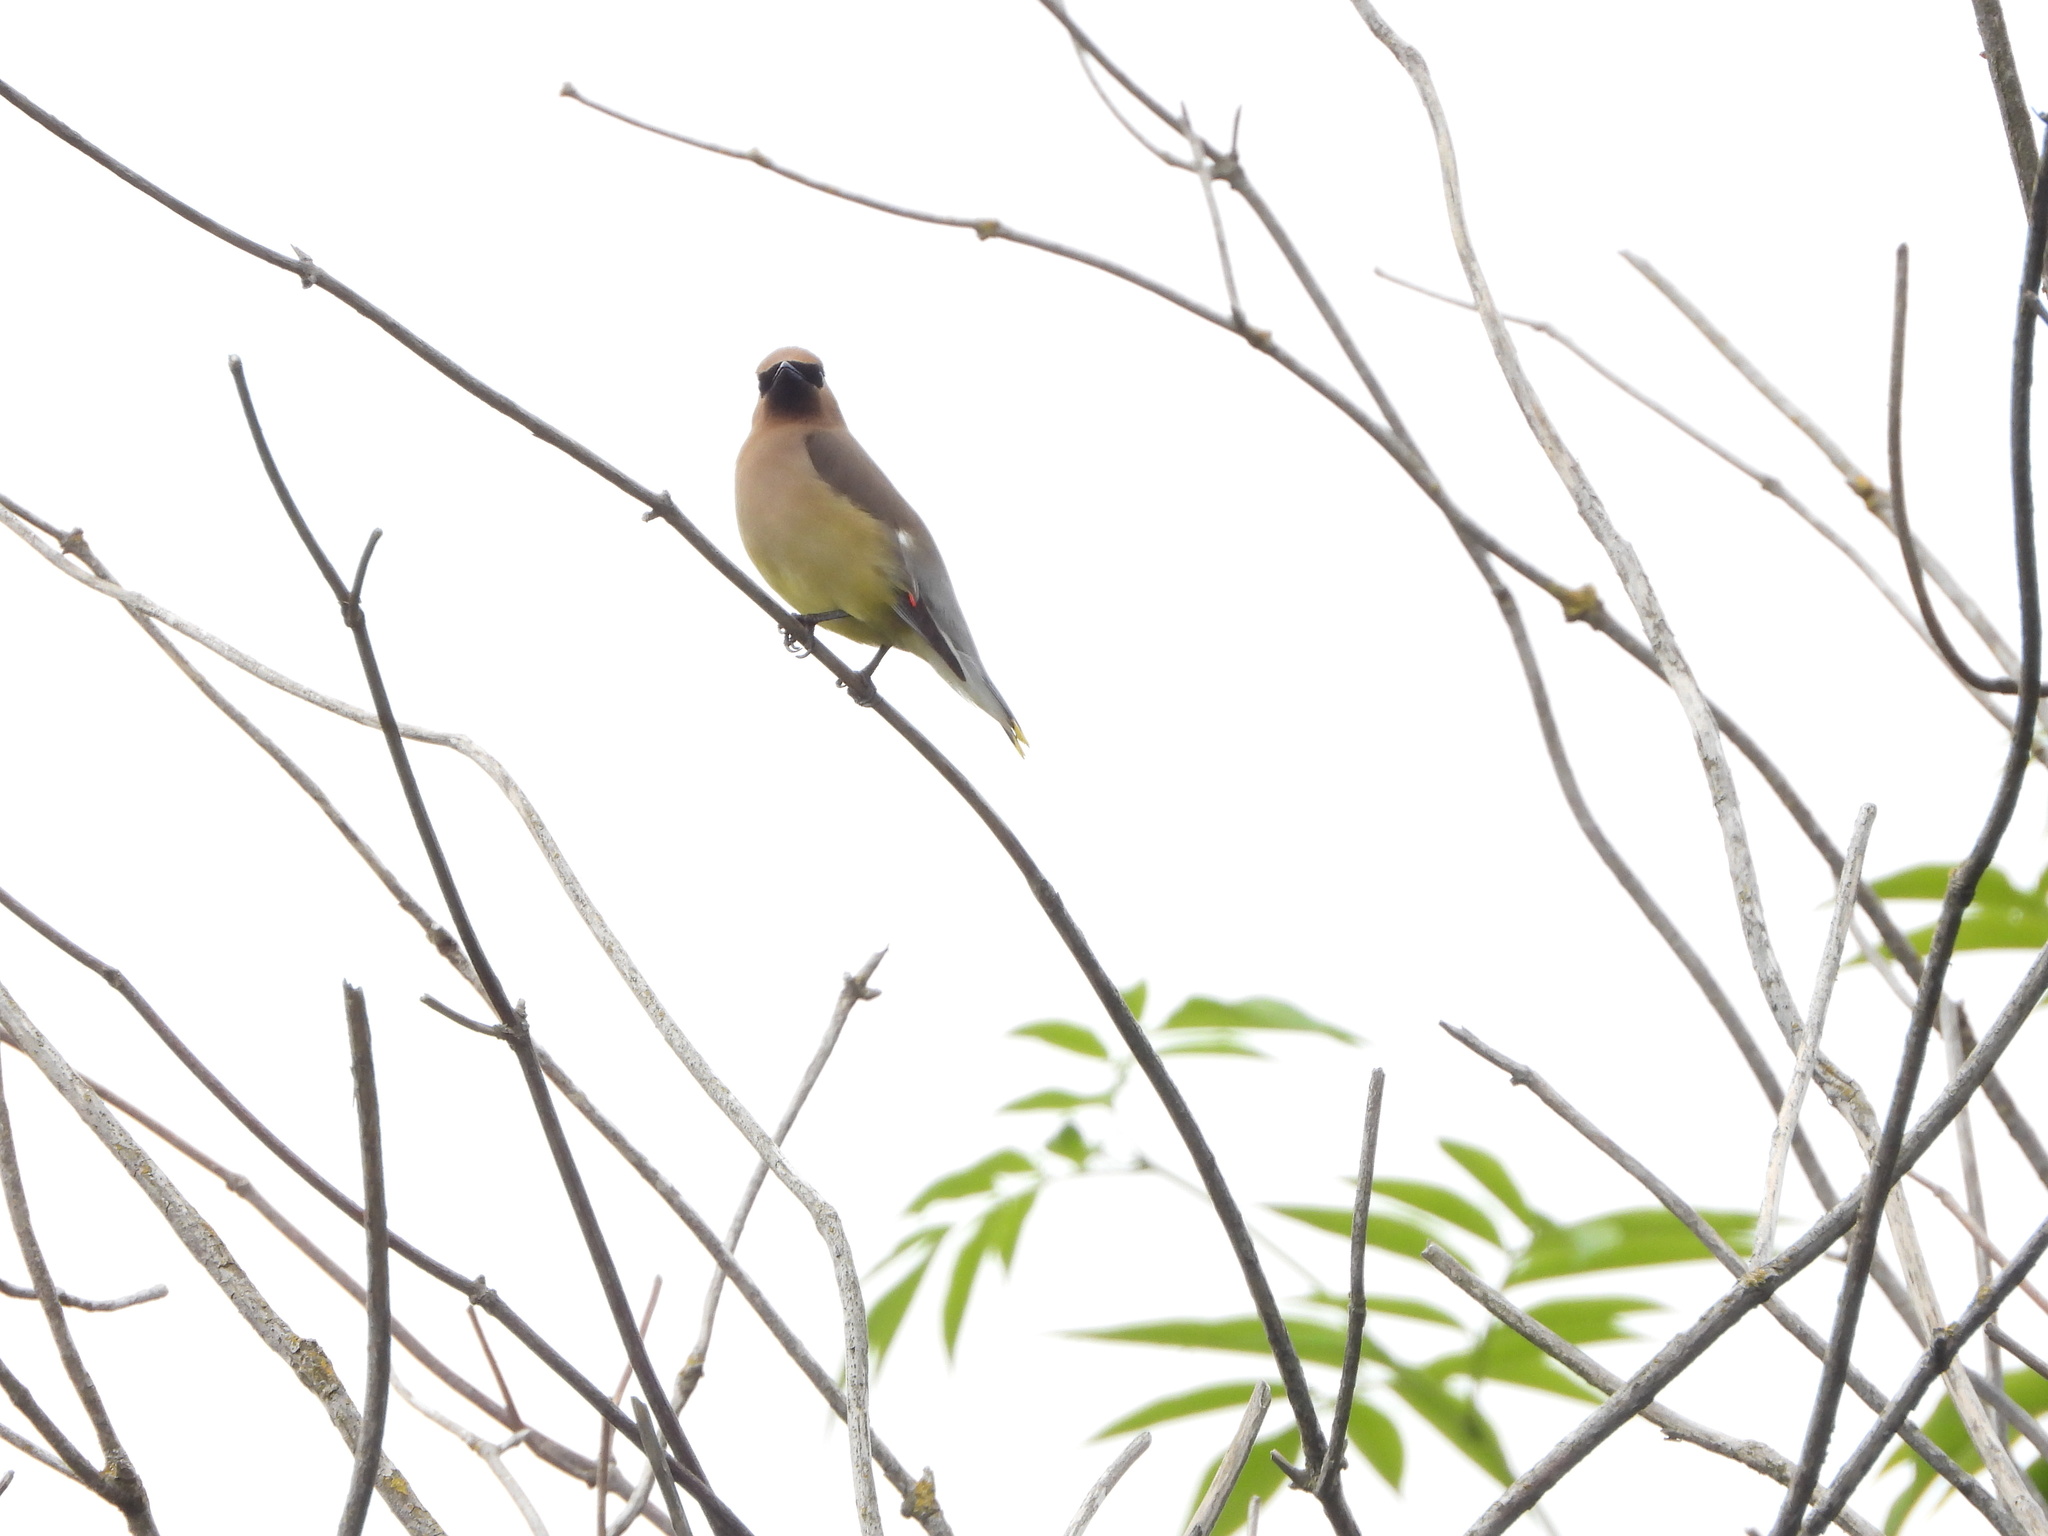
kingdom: Animalia
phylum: Chordata
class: Aves
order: Passeriformes
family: Bombycillidae
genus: Bombycilla
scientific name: Bombycilla cedrorum
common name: Cedar waxwing
